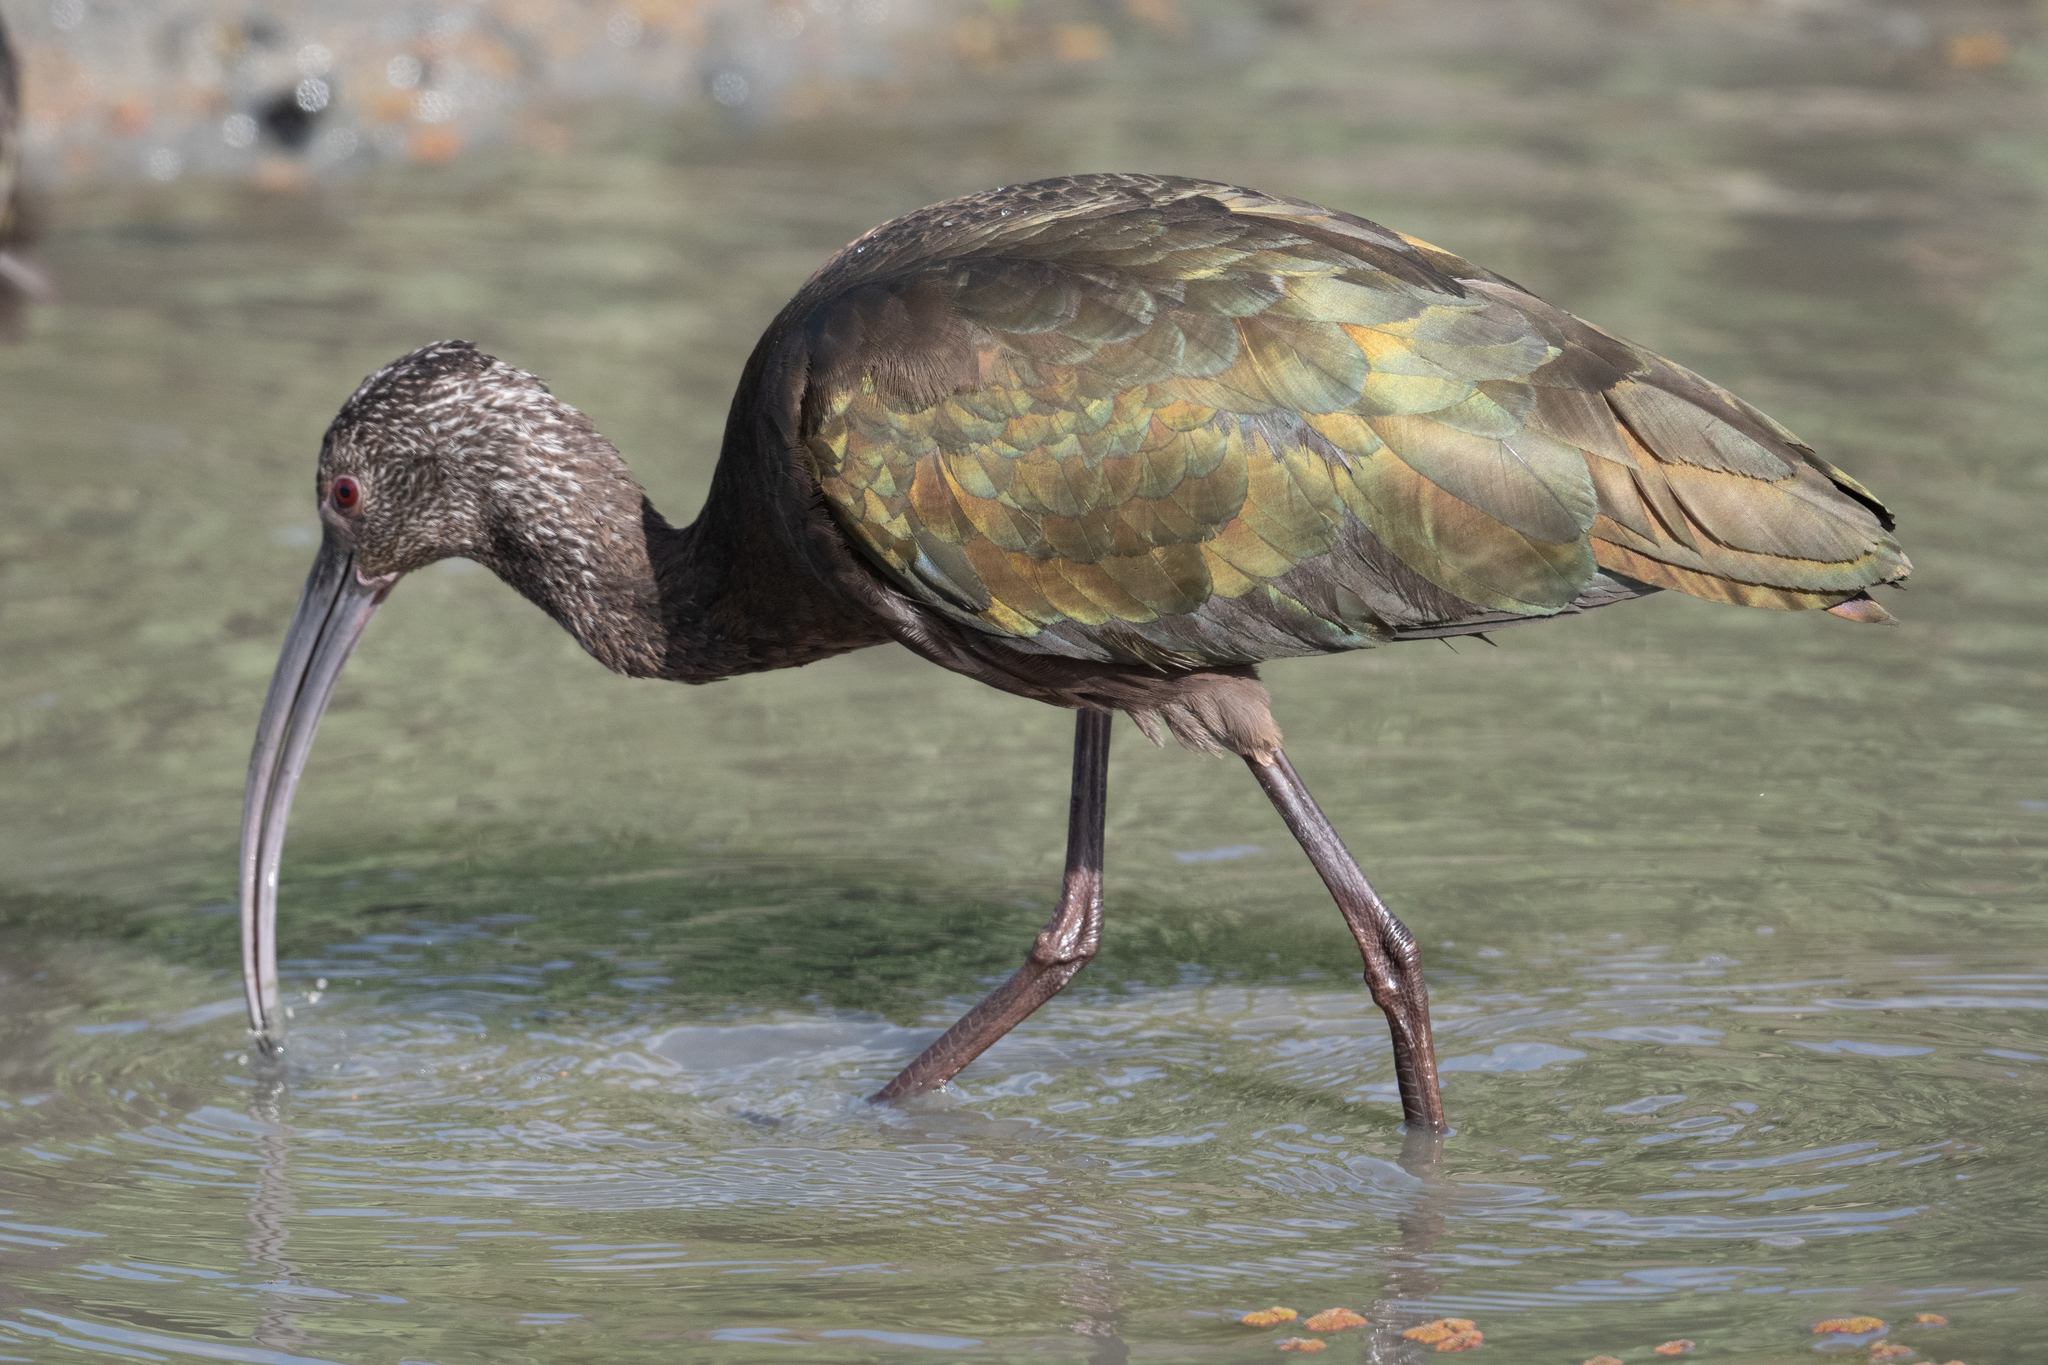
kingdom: Animalia
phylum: Chordata
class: Aves
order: Pelecaniformes
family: Threskiornithidae
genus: Plegadis
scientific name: Plegadis chihi
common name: White-faced ibis
